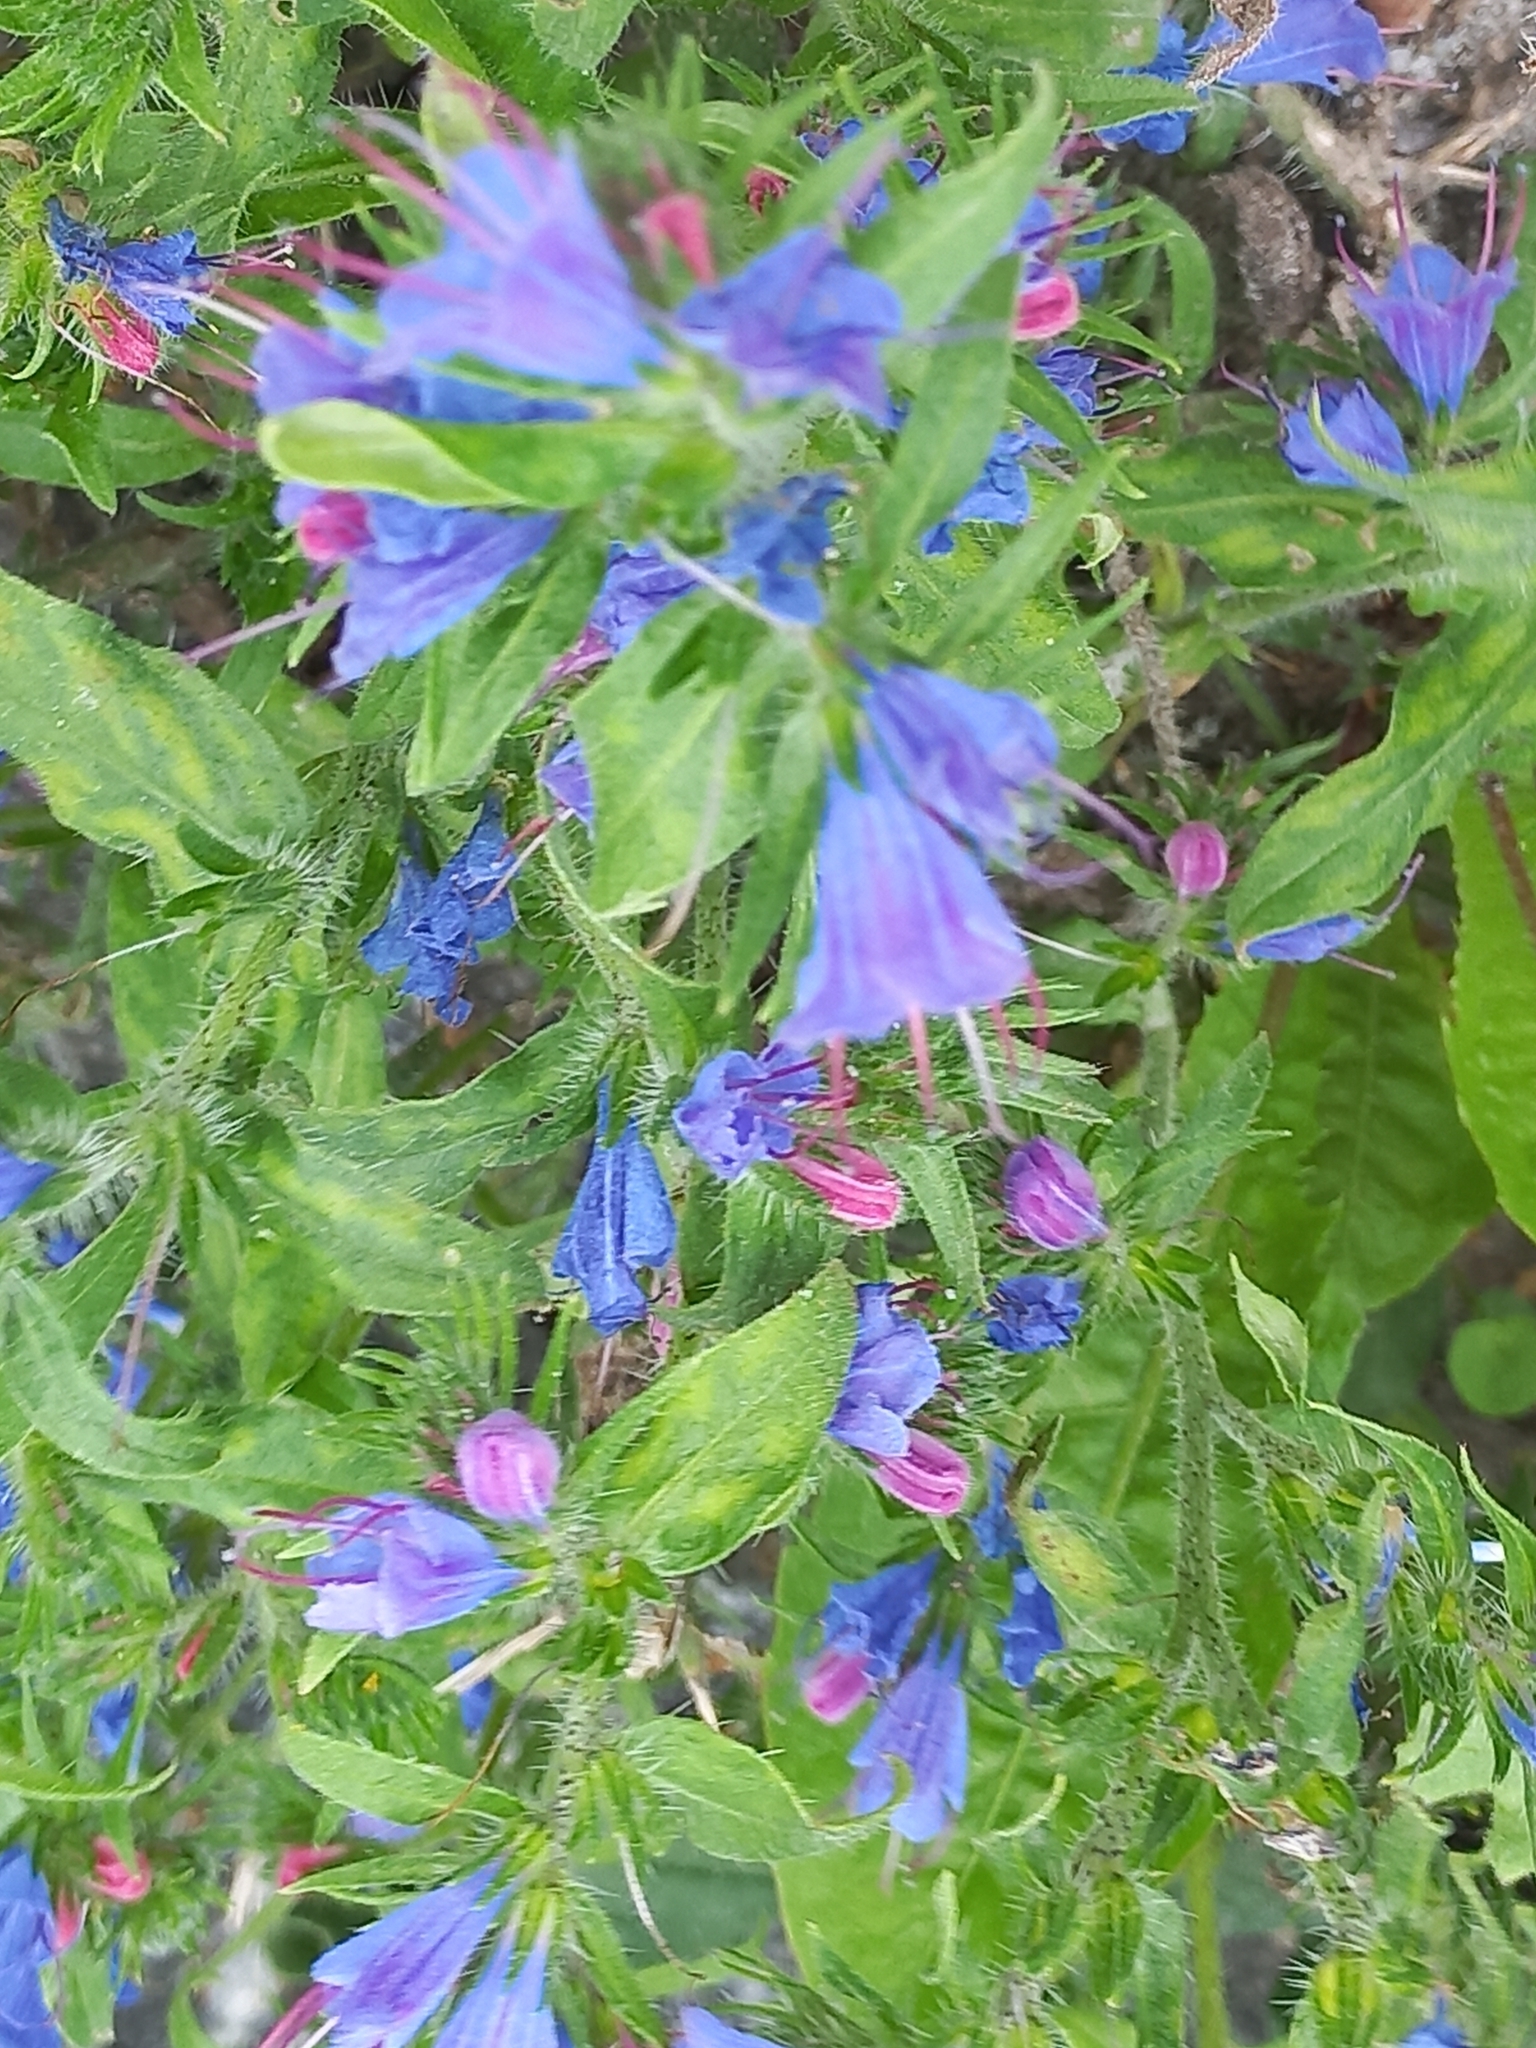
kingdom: Plantae
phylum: Tracheophyta
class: Magnoliopsida
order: Boraginales
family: Boraginaceae
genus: Echium
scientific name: Echium vulgare
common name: Common viper's bugloss
